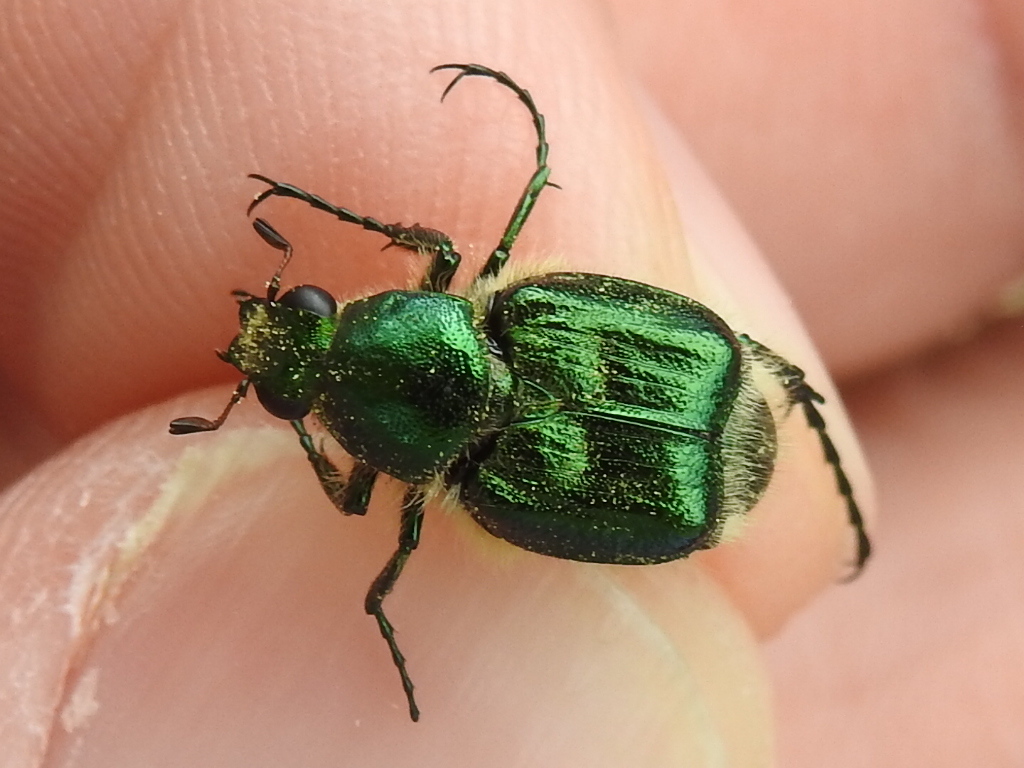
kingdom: Animalia
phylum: Arthropoda
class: Insecta
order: Coleoptera
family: Scarabaeidae
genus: Trichiotinus
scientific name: Trichiotinus lunulatus
